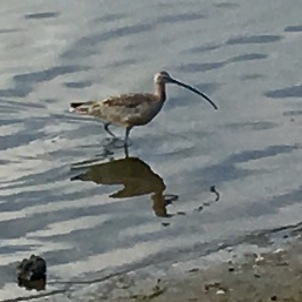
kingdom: Animalia
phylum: Chordata
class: Aves
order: Charadriiformes
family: Scolopacidae
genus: Numenius
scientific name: Numenius americanus
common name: Long-billed curlew
